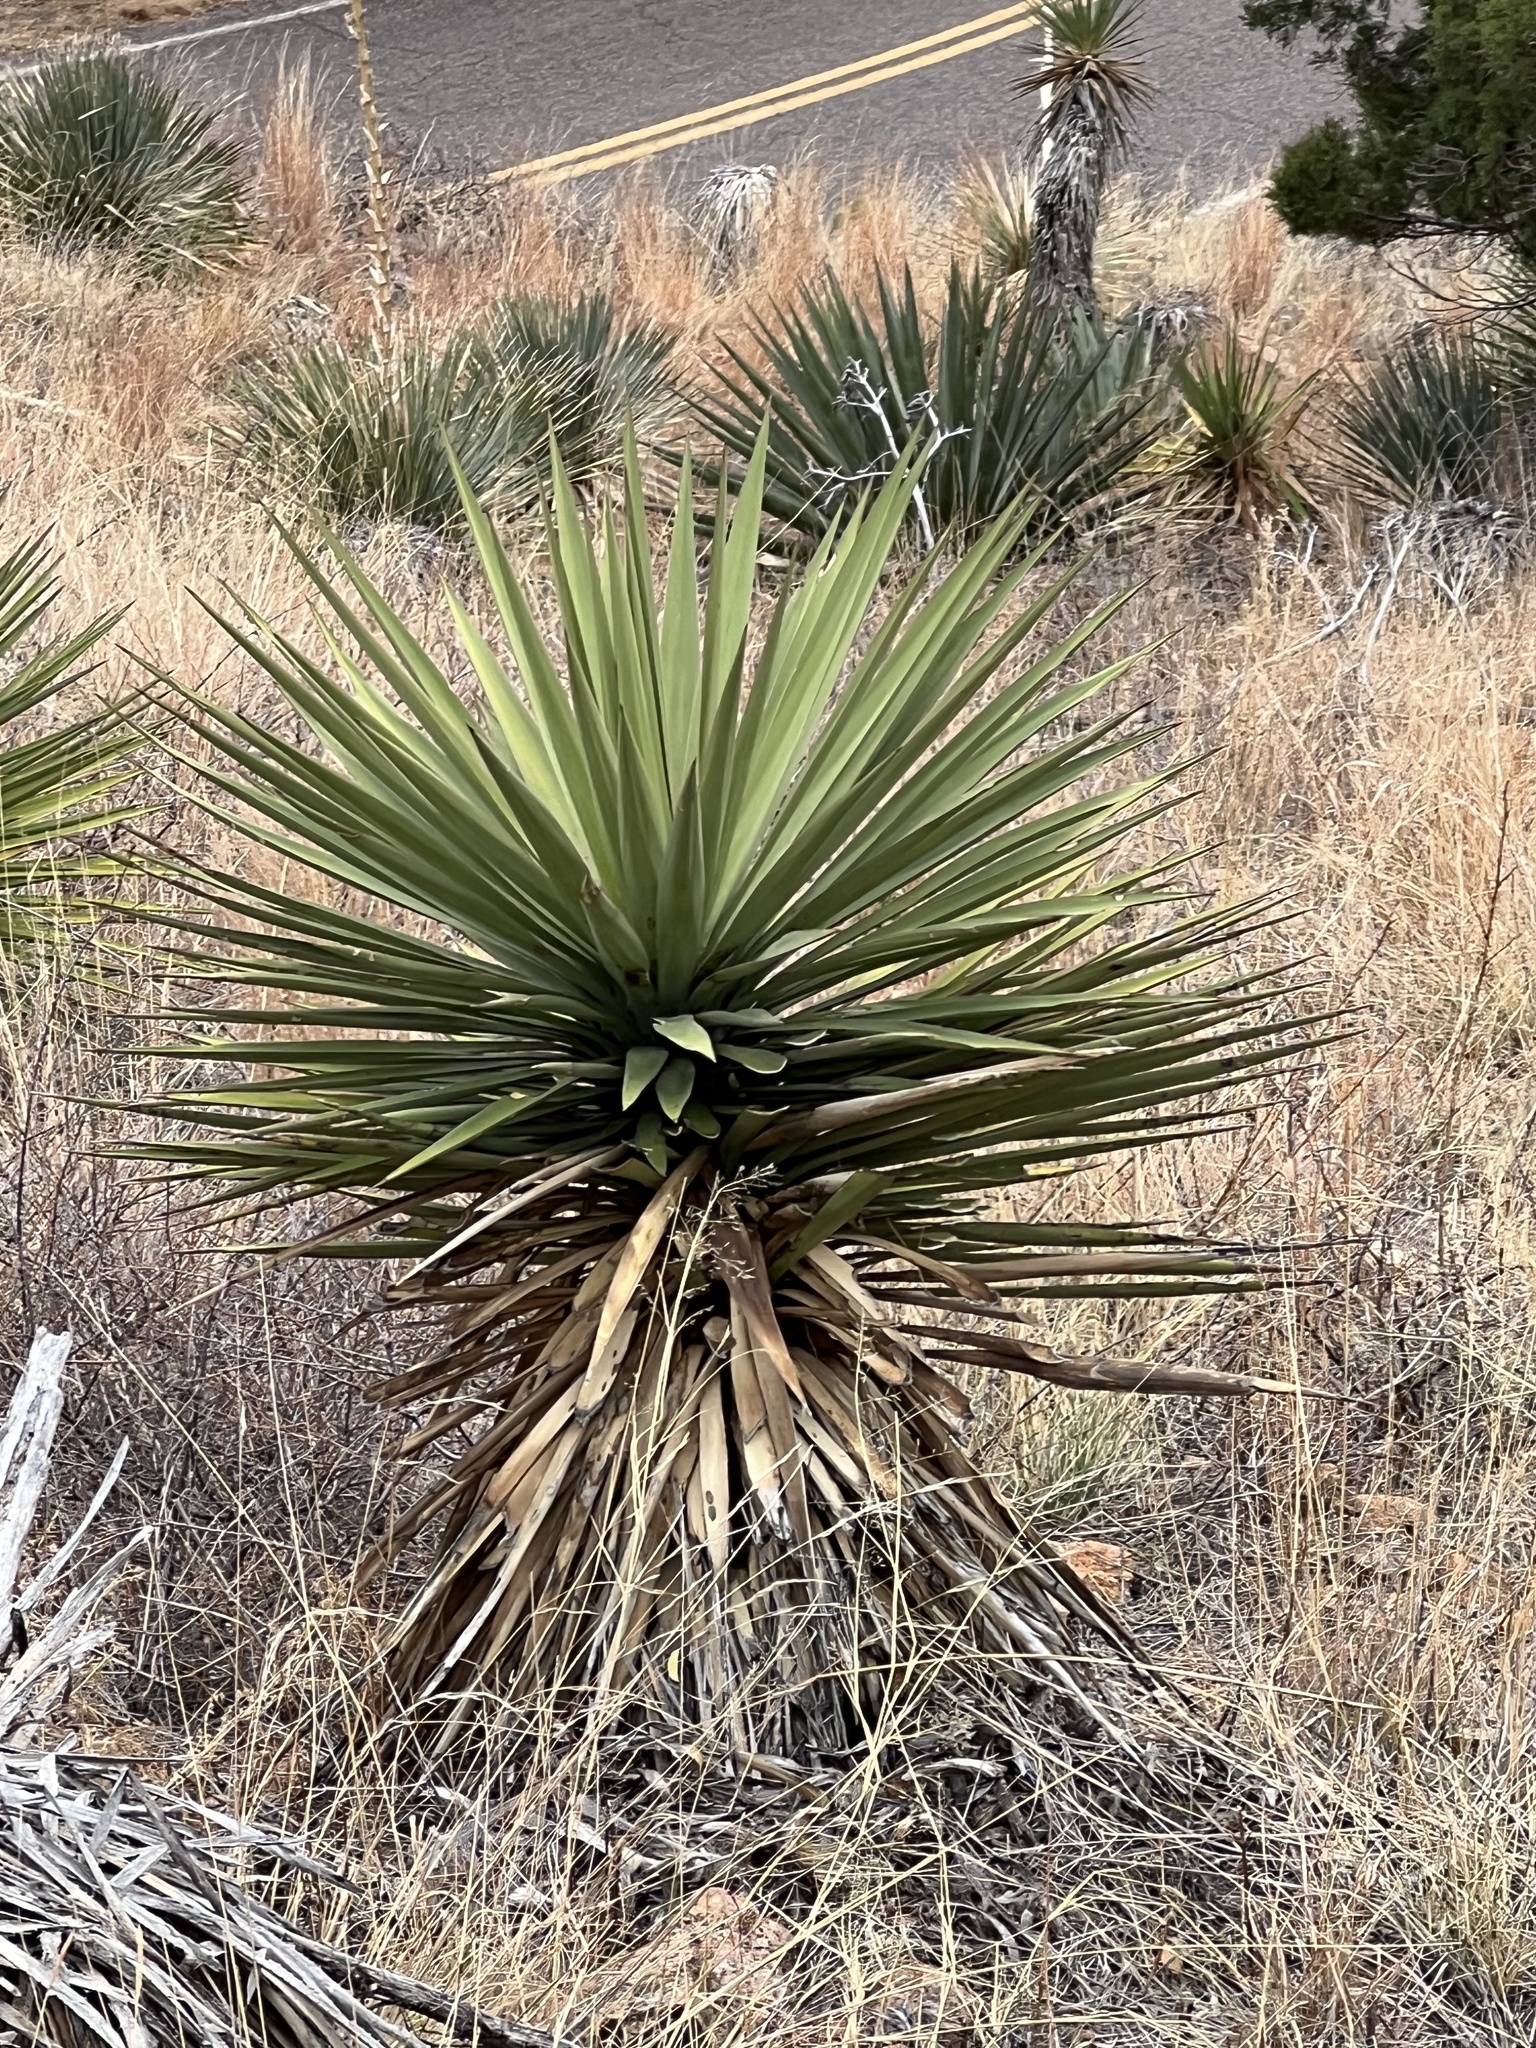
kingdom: Plantae
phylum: Tracheophyta
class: Liliopsida
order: Asparagales
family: Asparagaceae
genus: Yucca
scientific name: Yucca madrensis
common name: Hoary yucca
